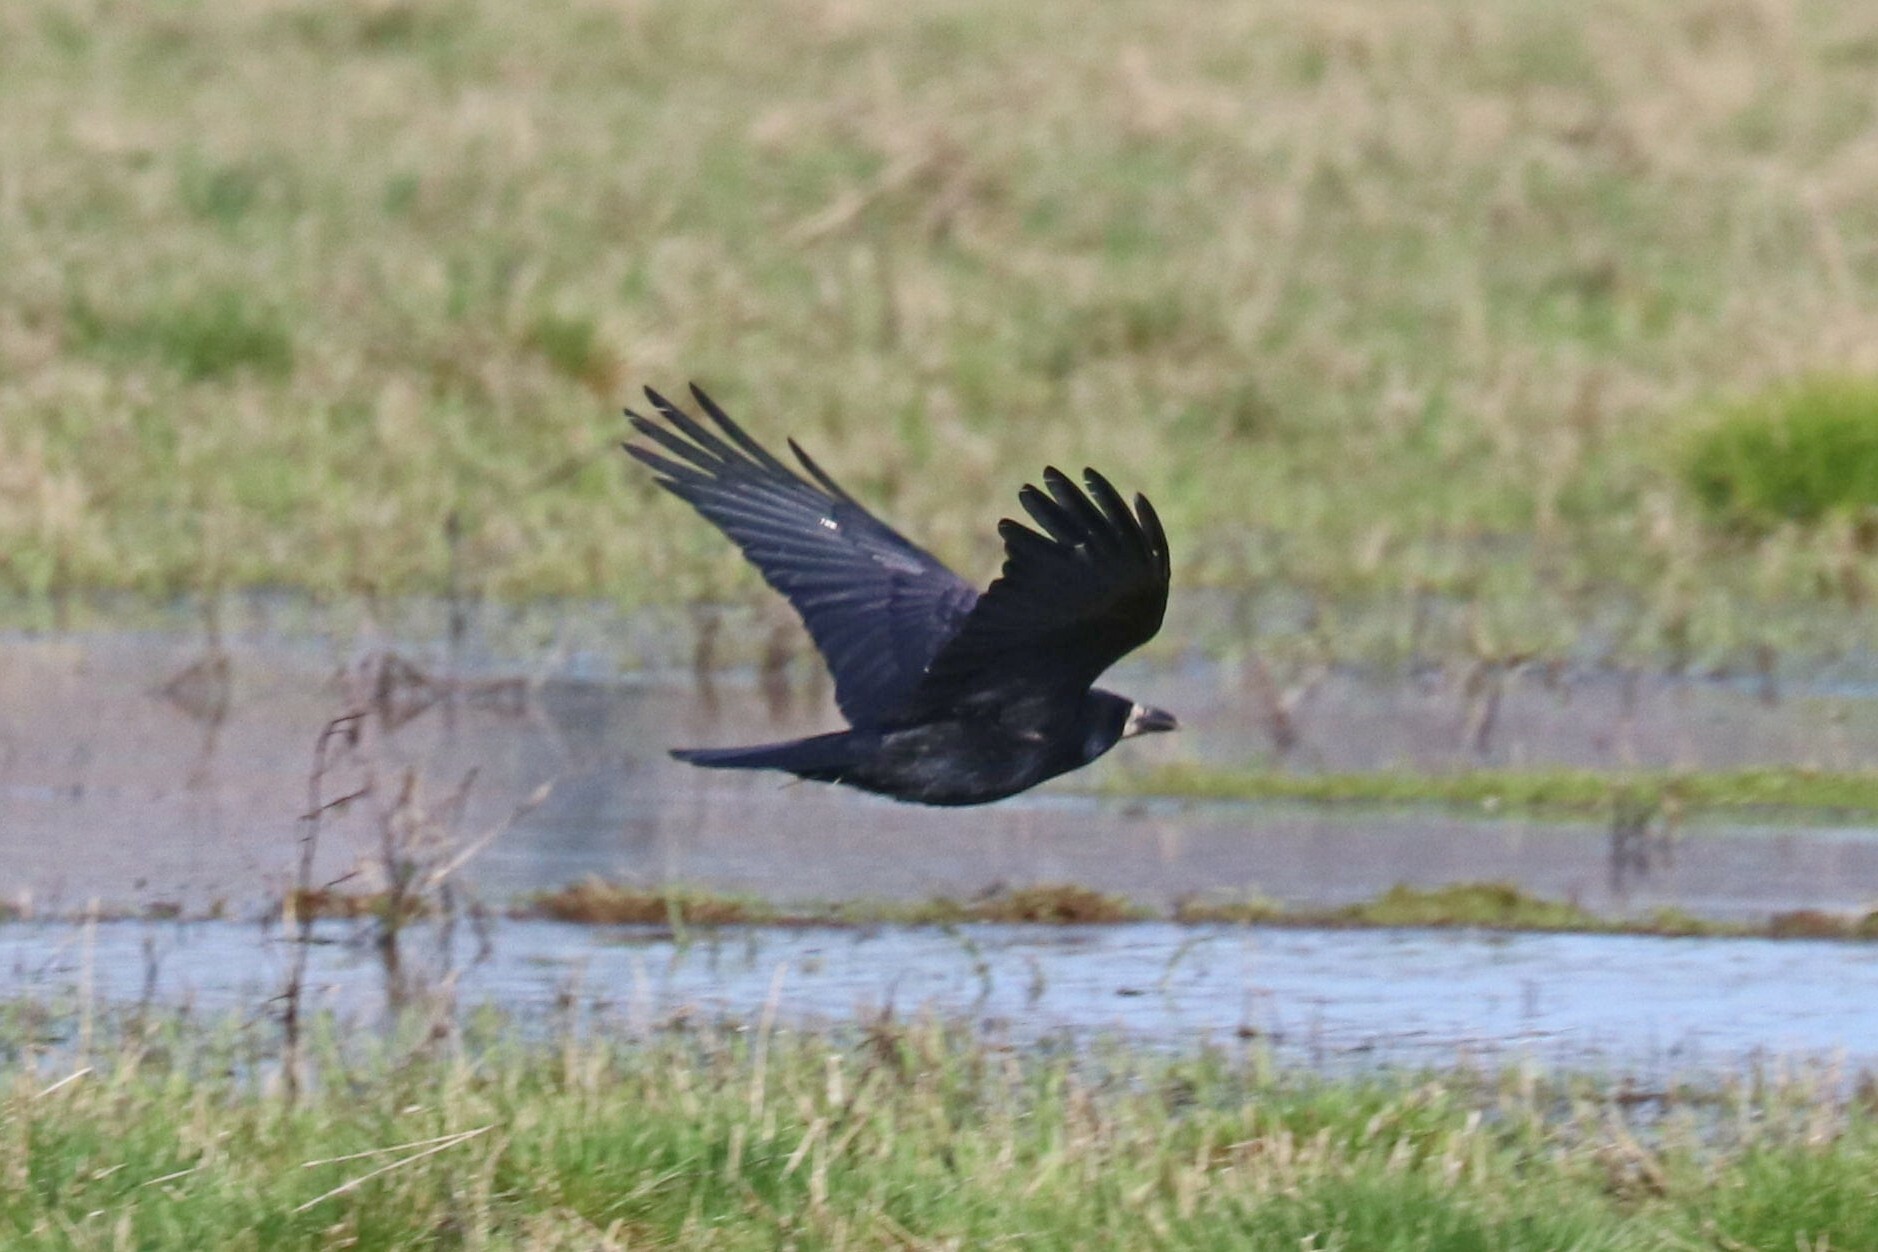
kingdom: Animalia
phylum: Chordata
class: Aves
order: Passeriformes
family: Corvidae
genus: Corvus
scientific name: Corvus frugilegus
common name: Rook
